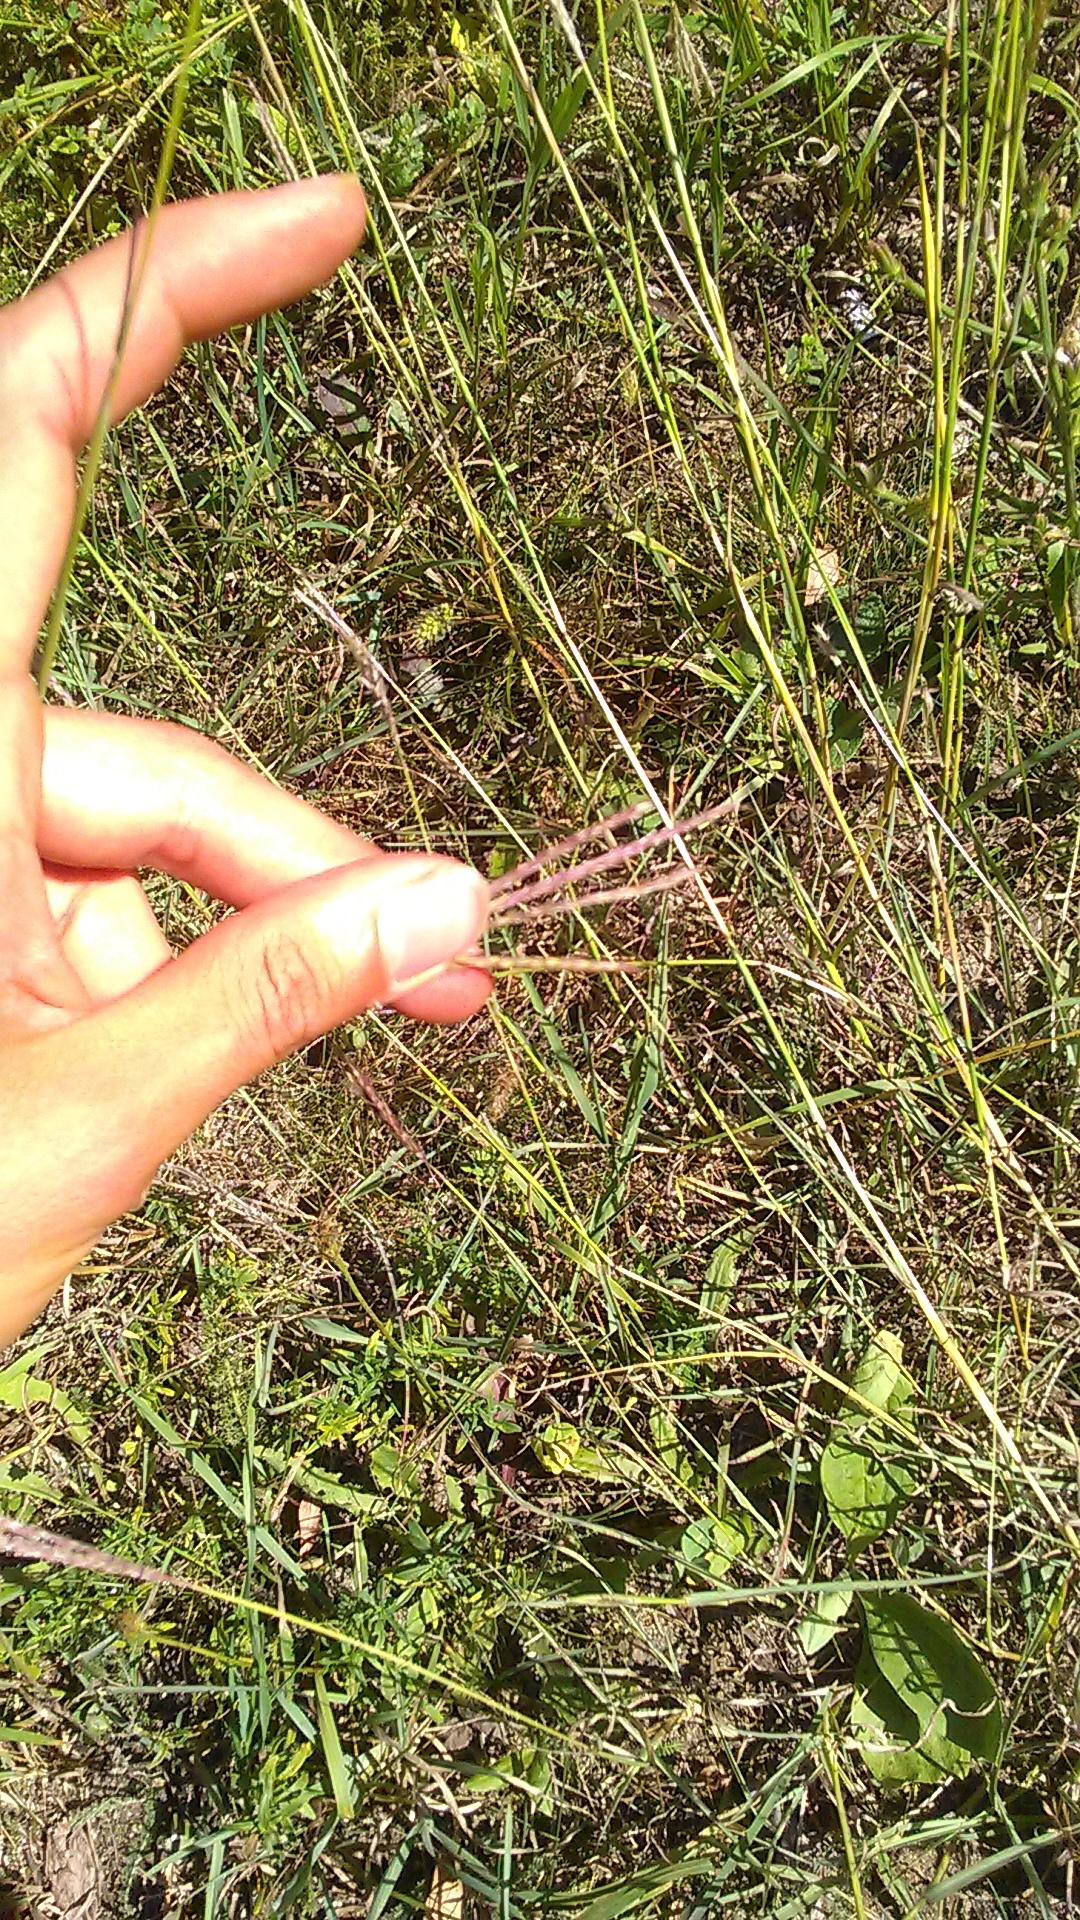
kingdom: Plantae
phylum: Tracheophyta
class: Liliopsida
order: Poales
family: Poaceae
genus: Bothriochloa
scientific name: Bothriochloa ischaemum
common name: Yellow bluestem
